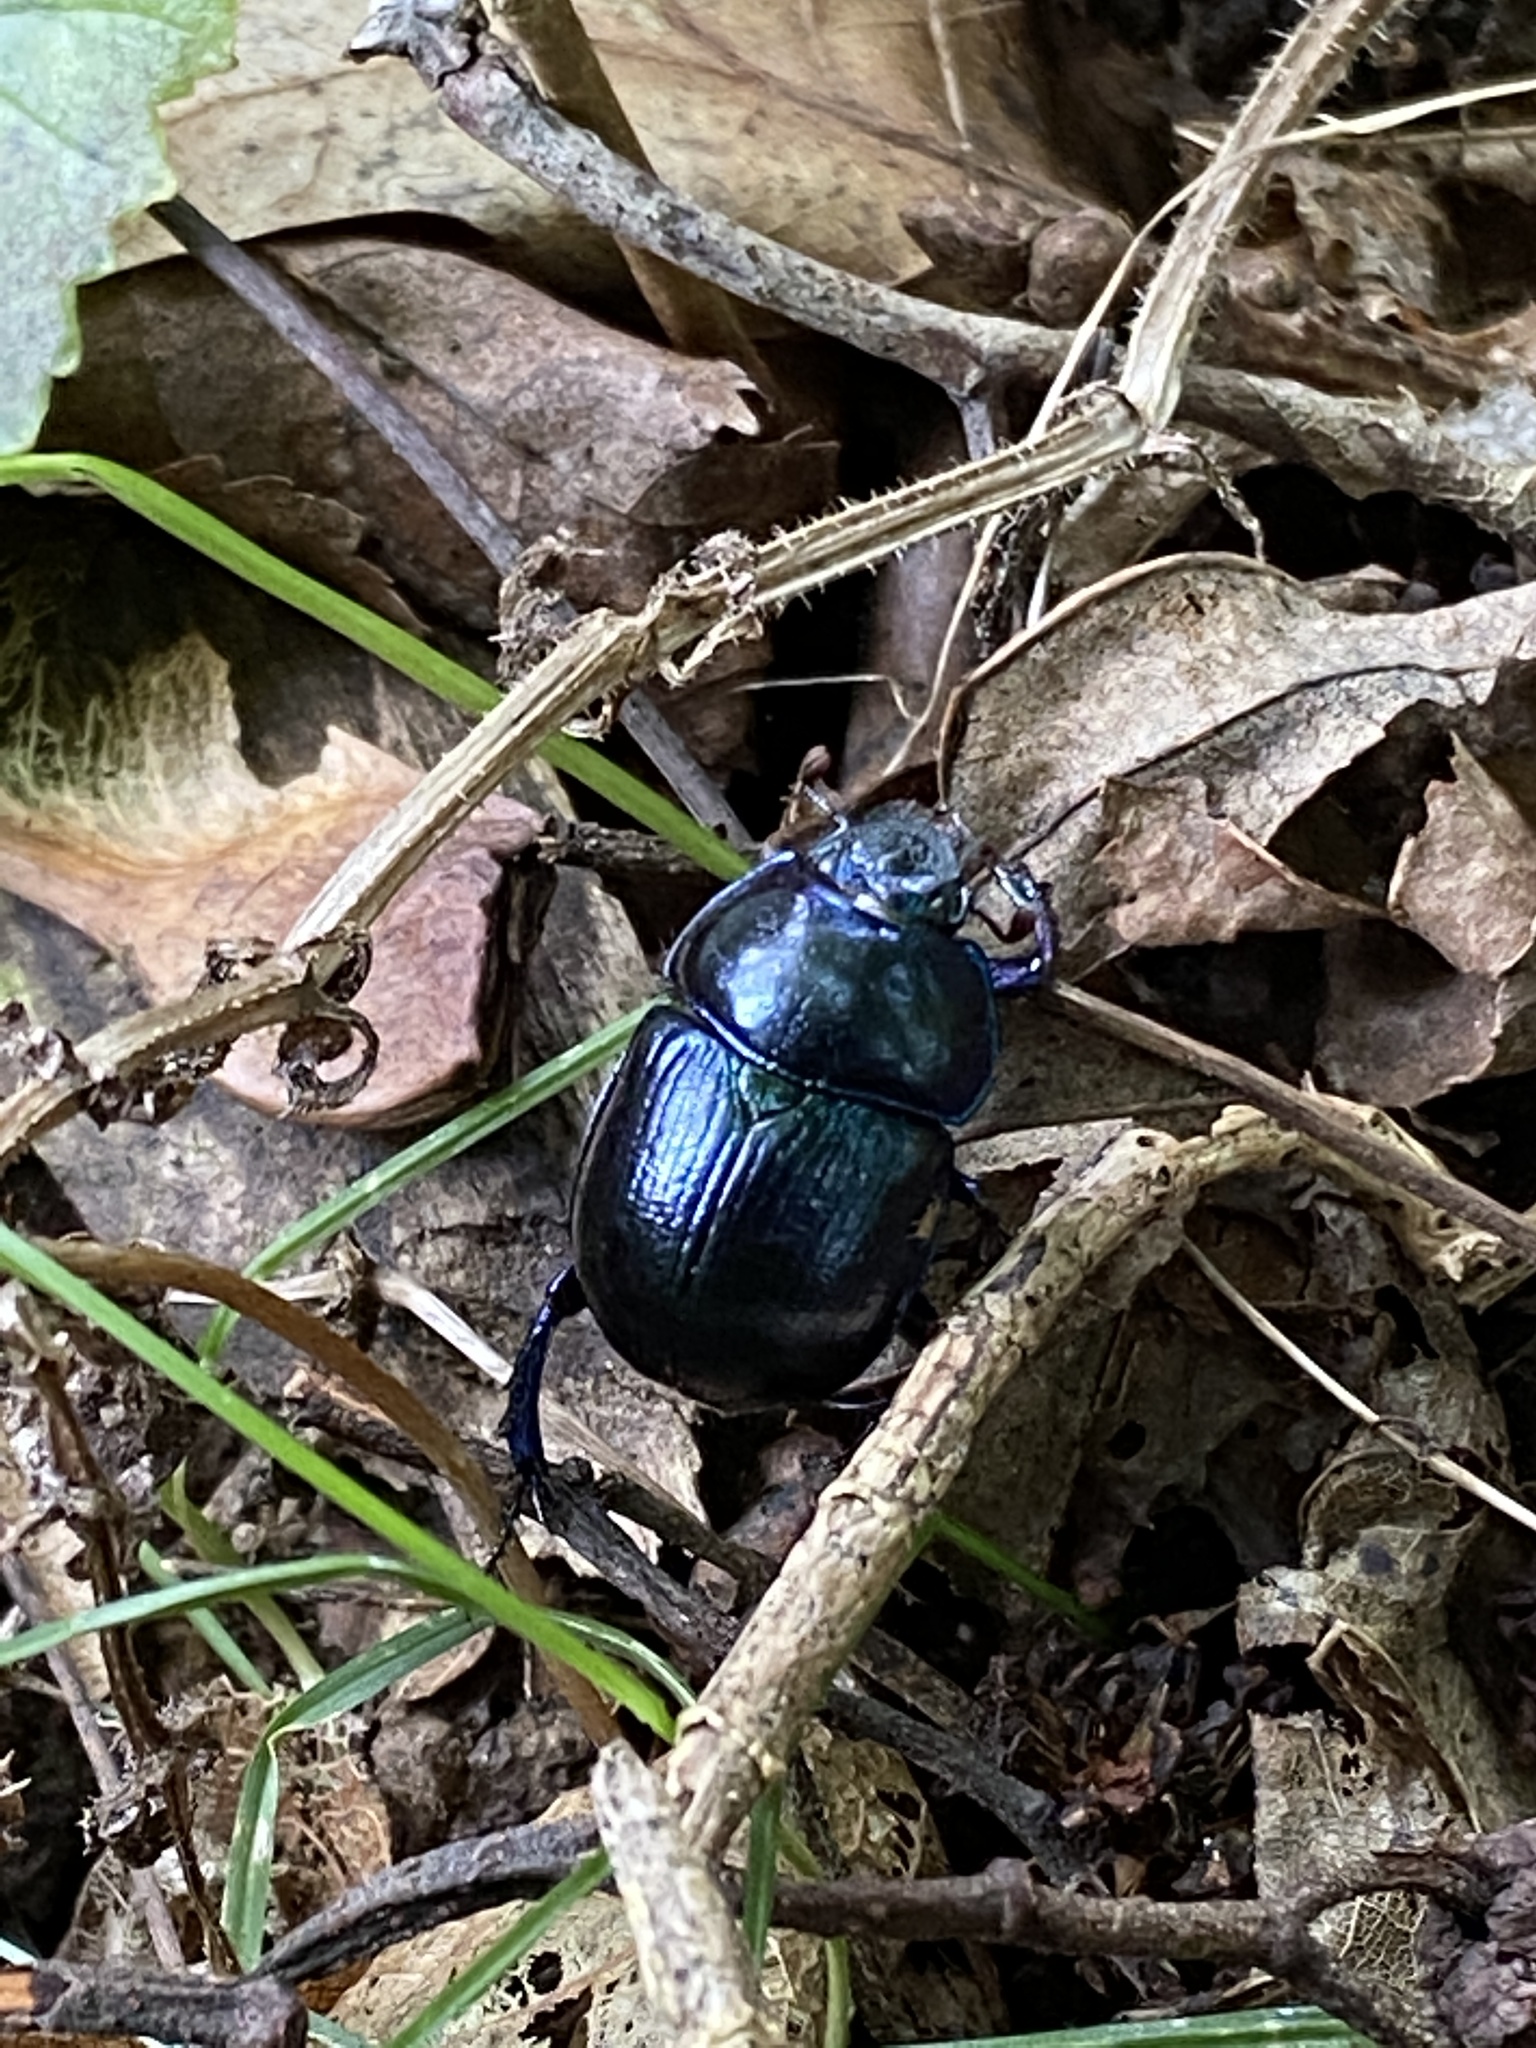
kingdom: Animalia
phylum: Arthropoda
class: Insecta
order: Coleoptera
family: Geotrupidae
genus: Anoplotrupes
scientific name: Anoplotrupes stercorosus
